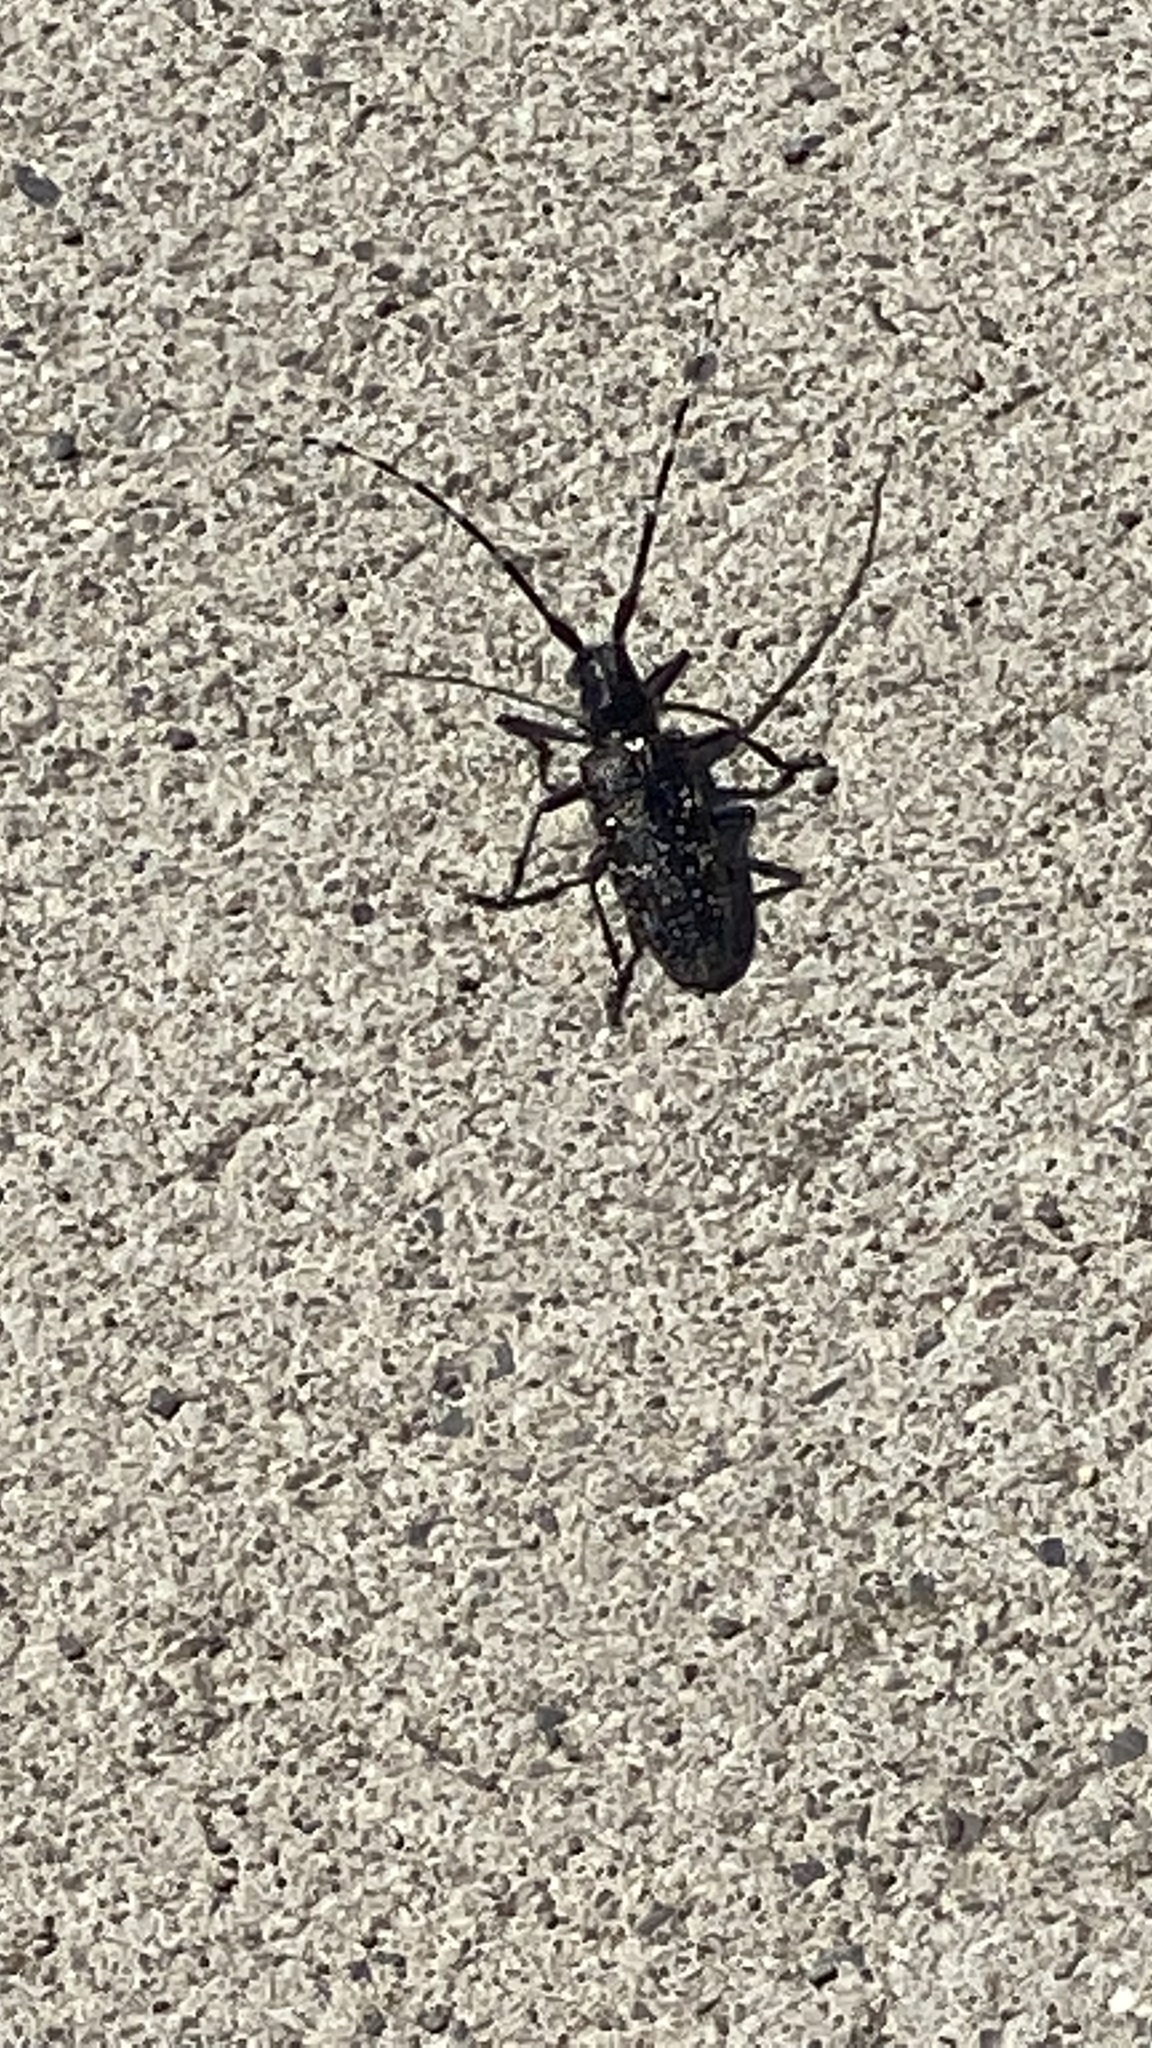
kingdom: Animalia
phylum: Arthropoda
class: Insecta
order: Coleoptera
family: Cerambycidae
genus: Monochamus
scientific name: Monochamus scutellatus
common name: White-spotted sawyer beetle
